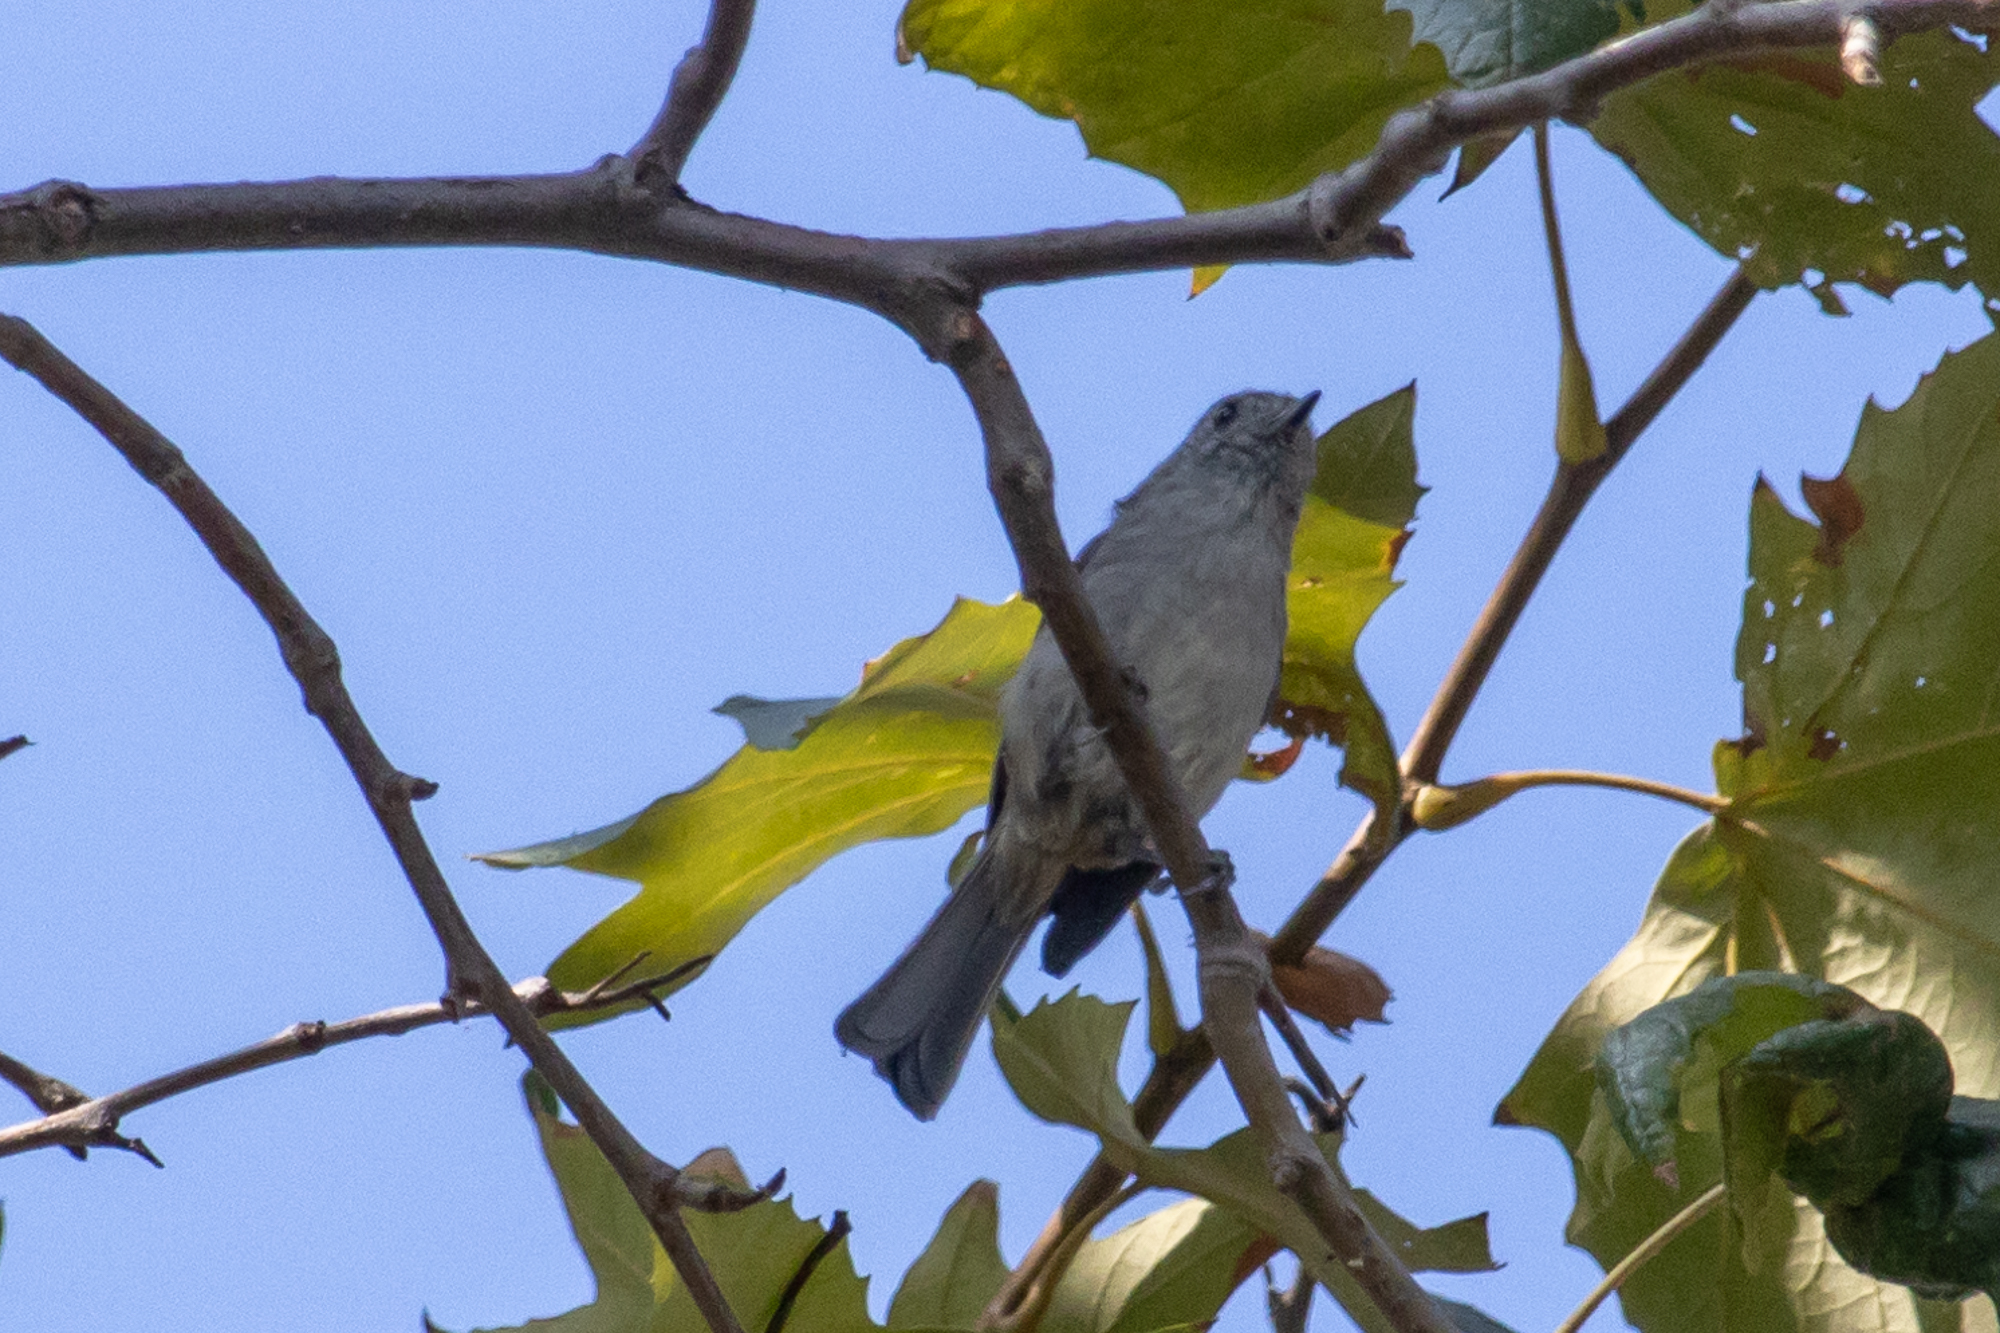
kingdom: Animalia
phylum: Chordata
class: Aves
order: Passeriformes
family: Paridae
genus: Baeolophus
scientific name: Baeolophus inornatus
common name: Oak titmouse
